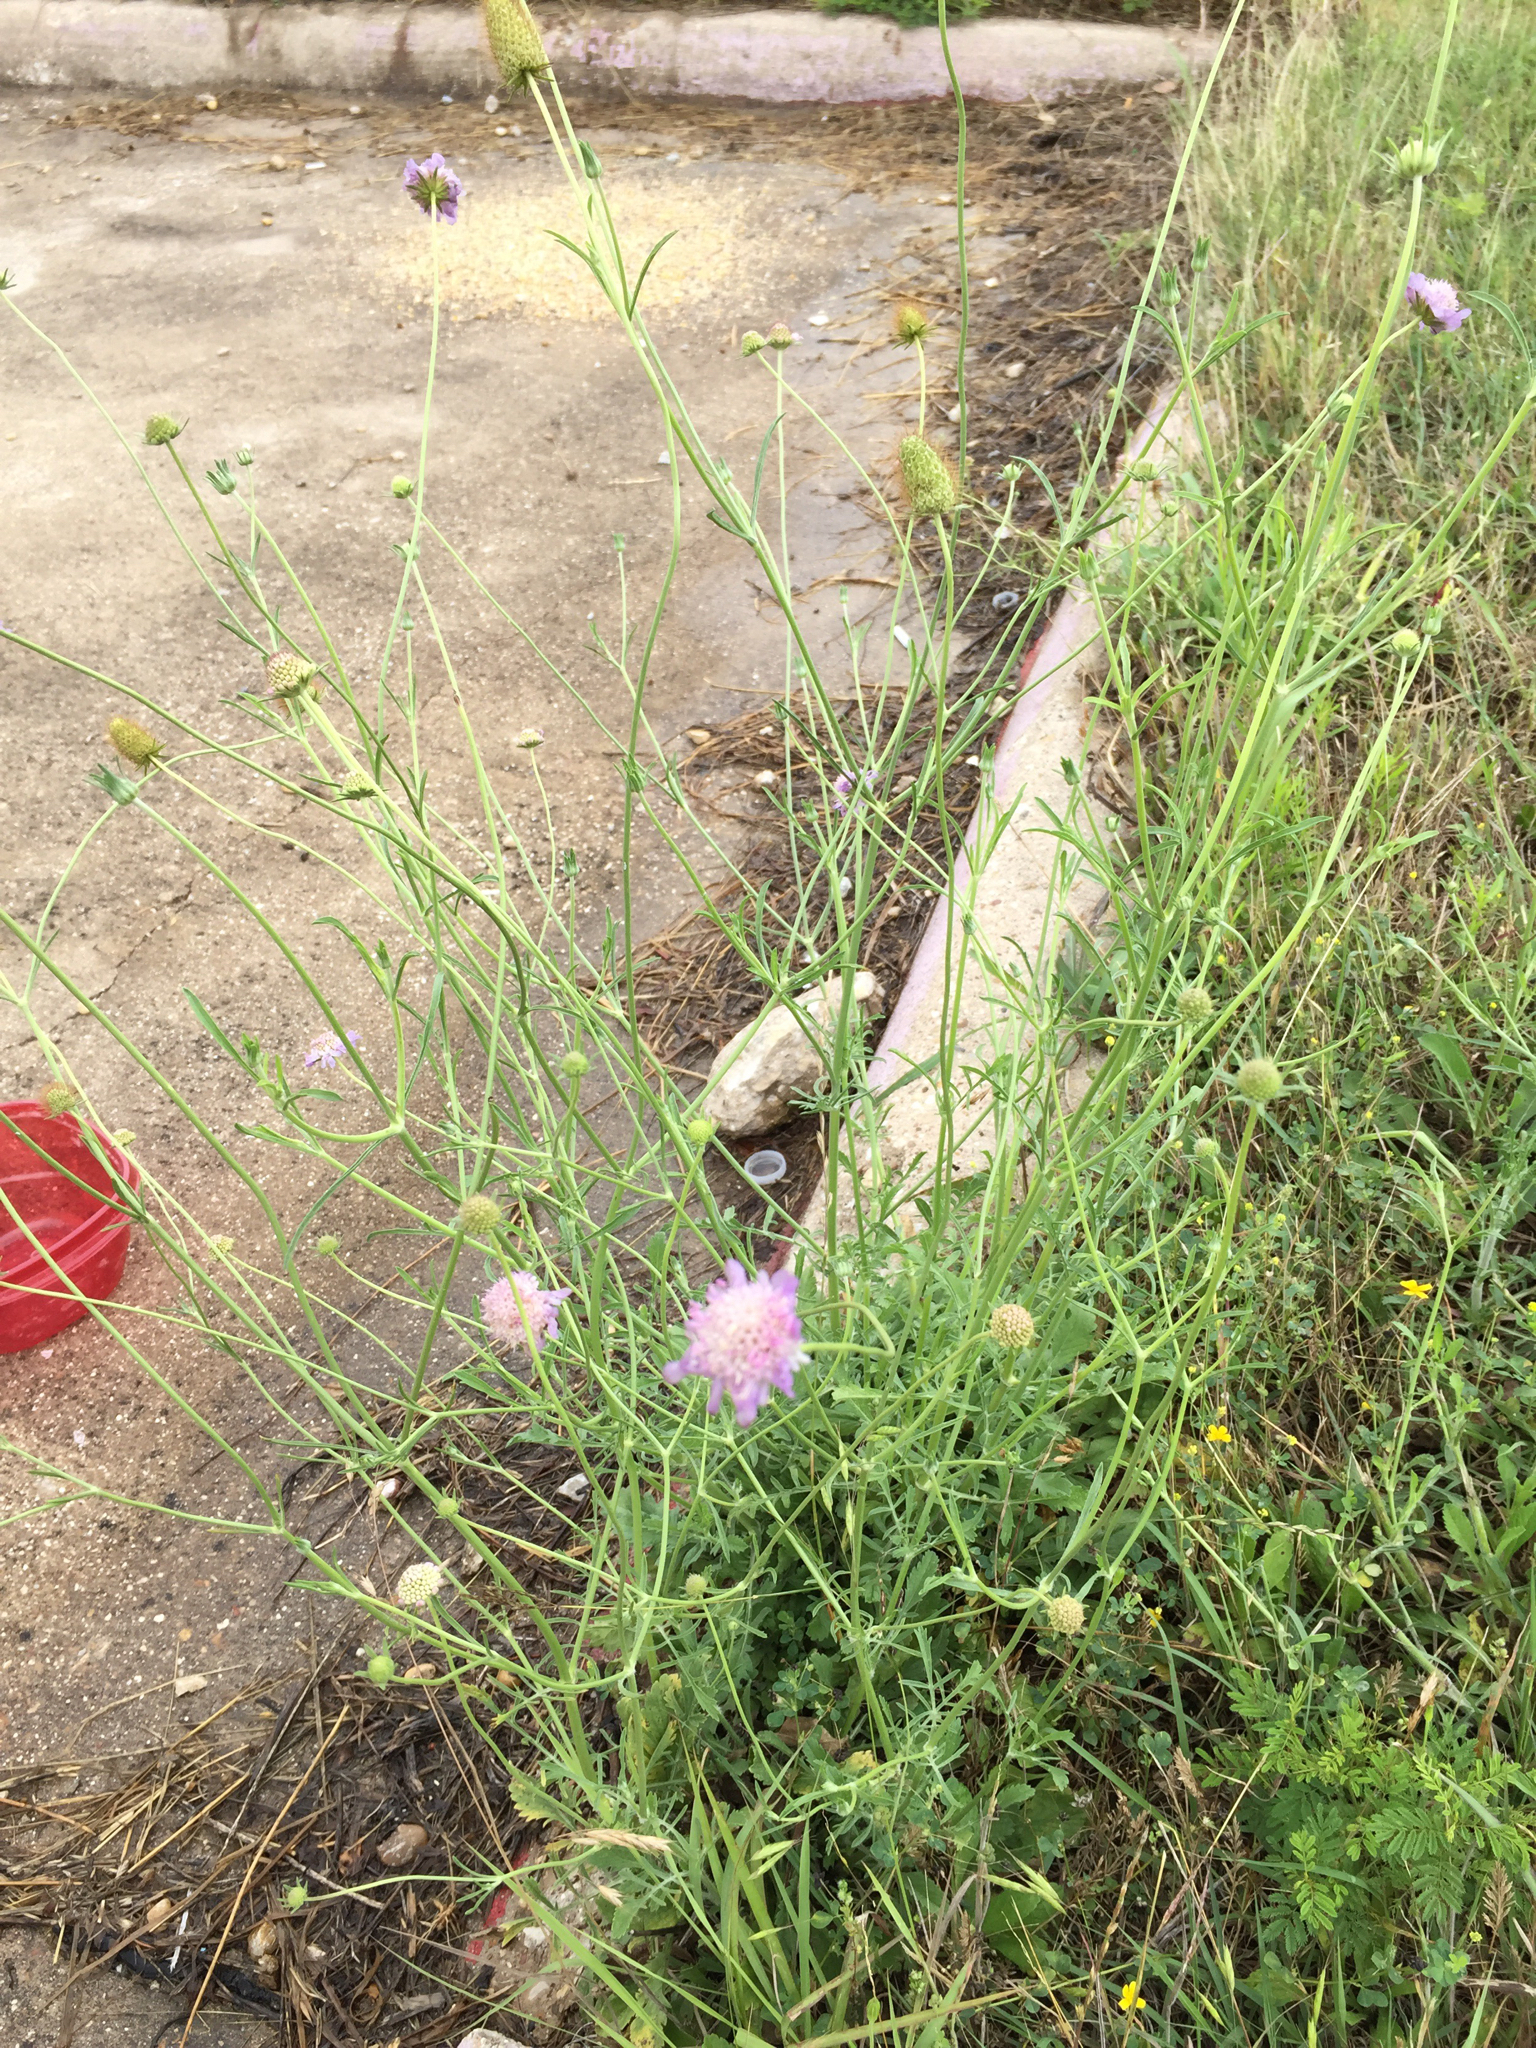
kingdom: Plantae
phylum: Tracheophyta
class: Magnoliopsida
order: Dipsacales
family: Caprifoliaceae
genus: Sixalix
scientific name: Sixalix atropurpurea
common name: Sweet scabious
